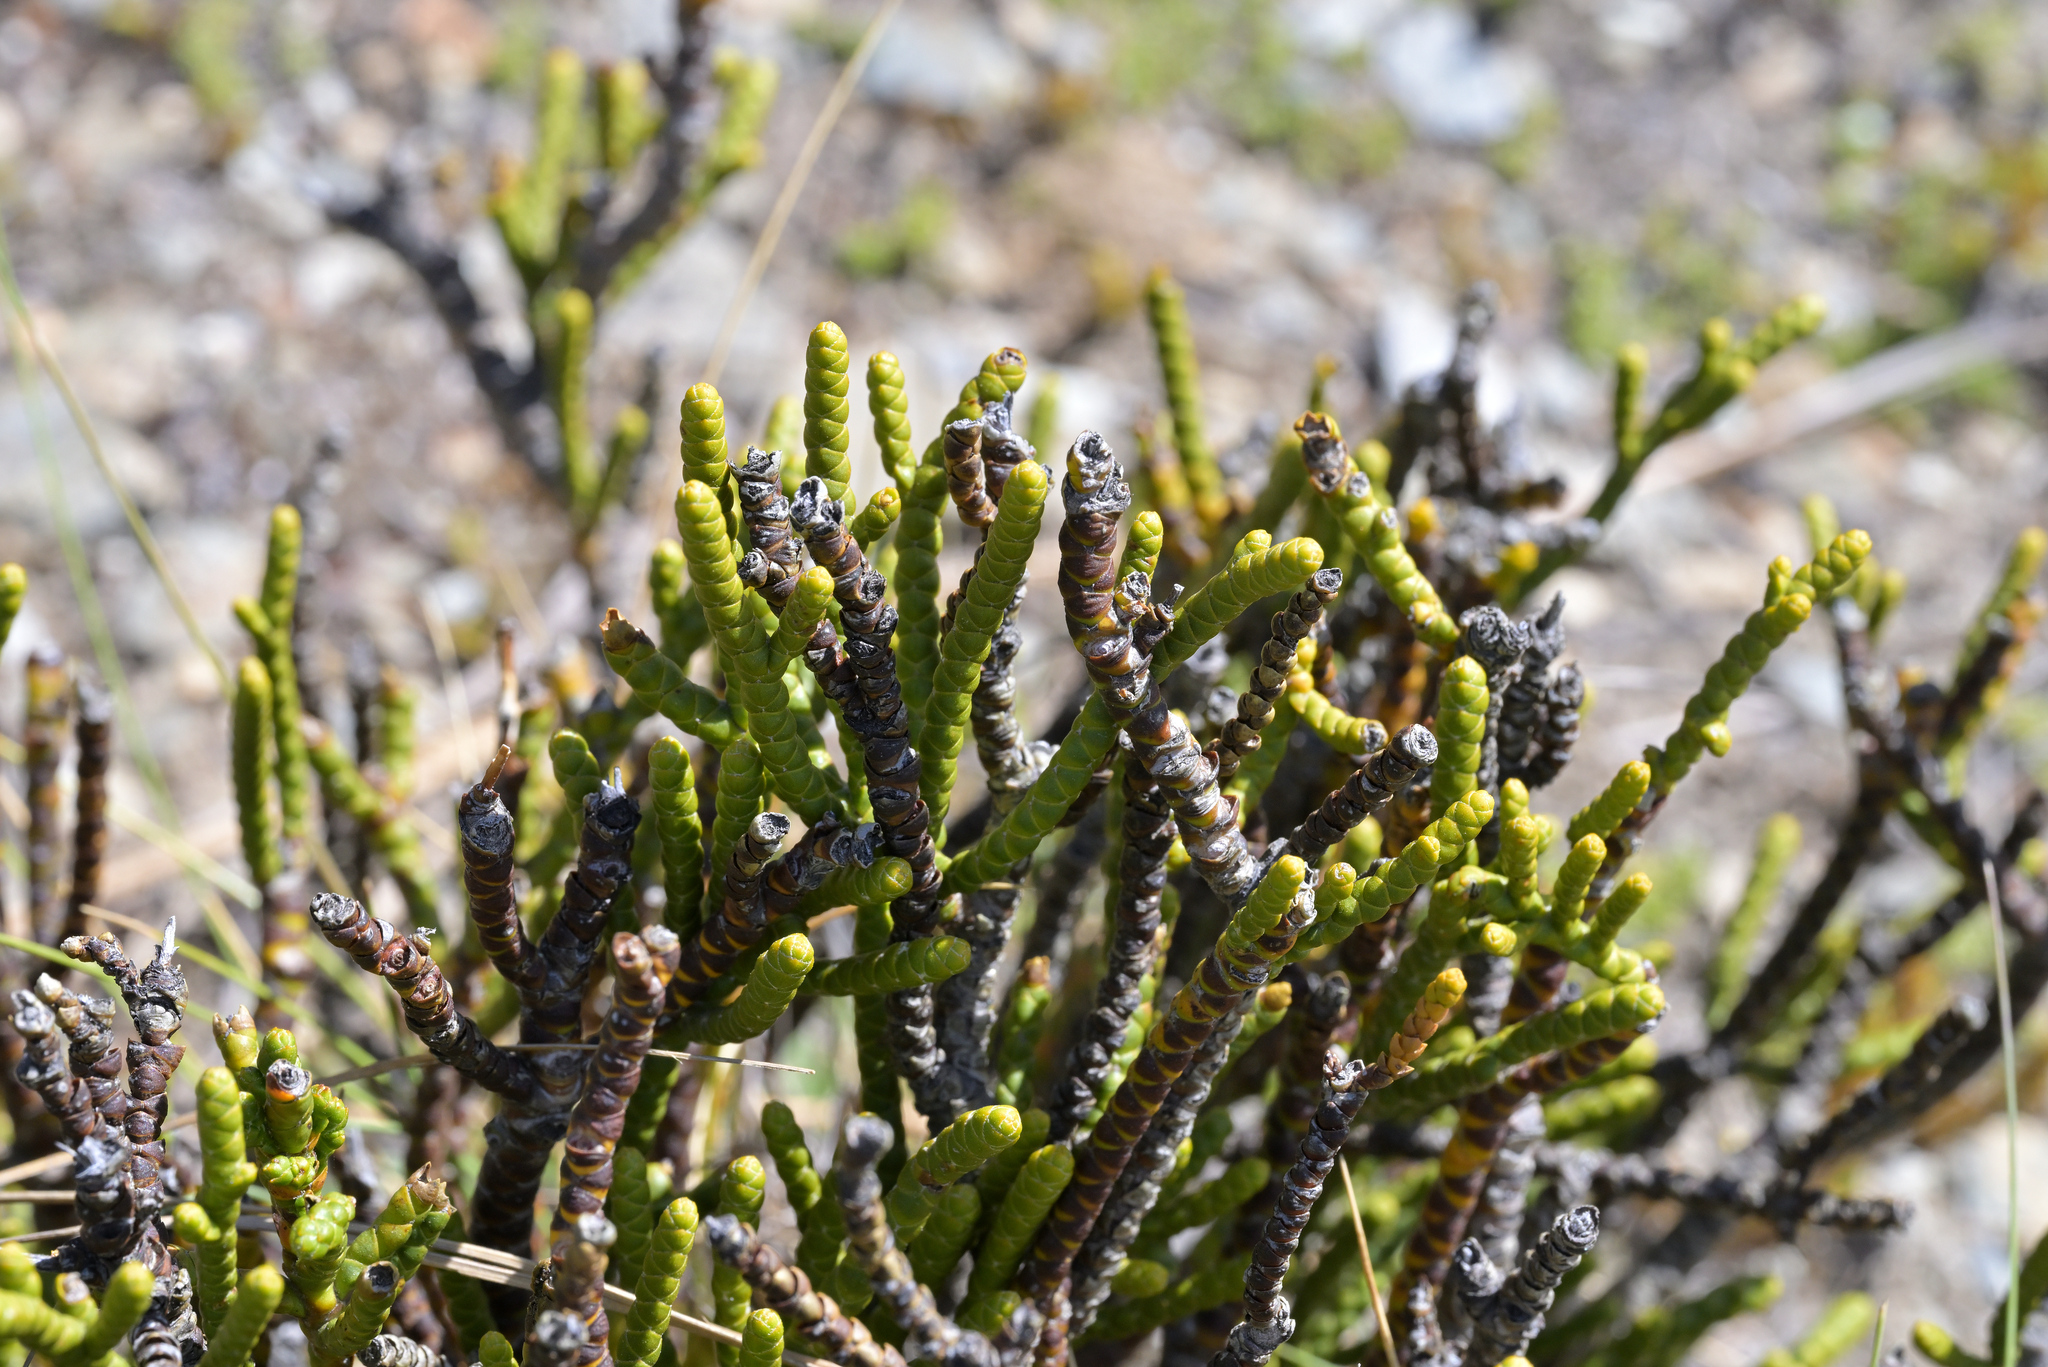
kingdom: Plantae
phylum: Tracheophyta
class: Magnoliopsida
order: Lamiales
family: Plantaginaceae
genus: Veronica
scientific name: Veronica hectorii
